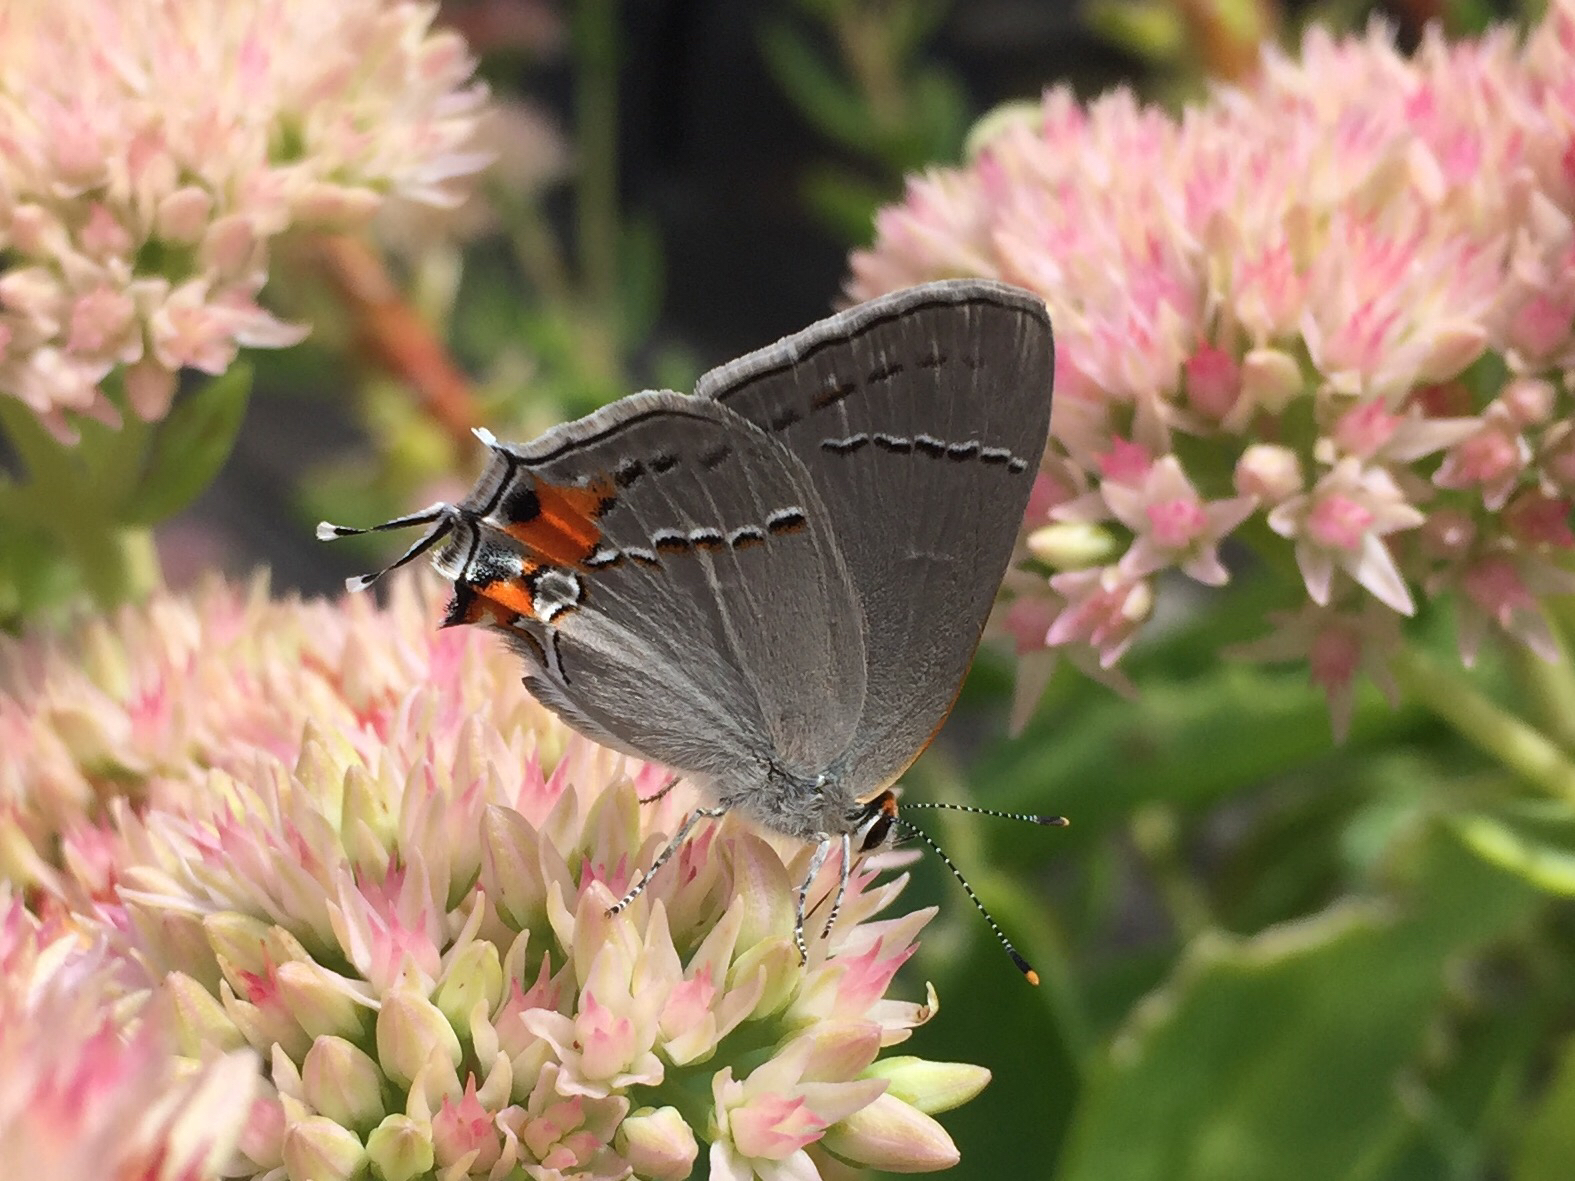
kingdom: Animalia
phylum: Arthropoda
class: Insecta
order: Lepidoptera
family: Lycaenidae
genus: Strymon
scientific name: Strymon melinus
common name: Gray hairstreak
